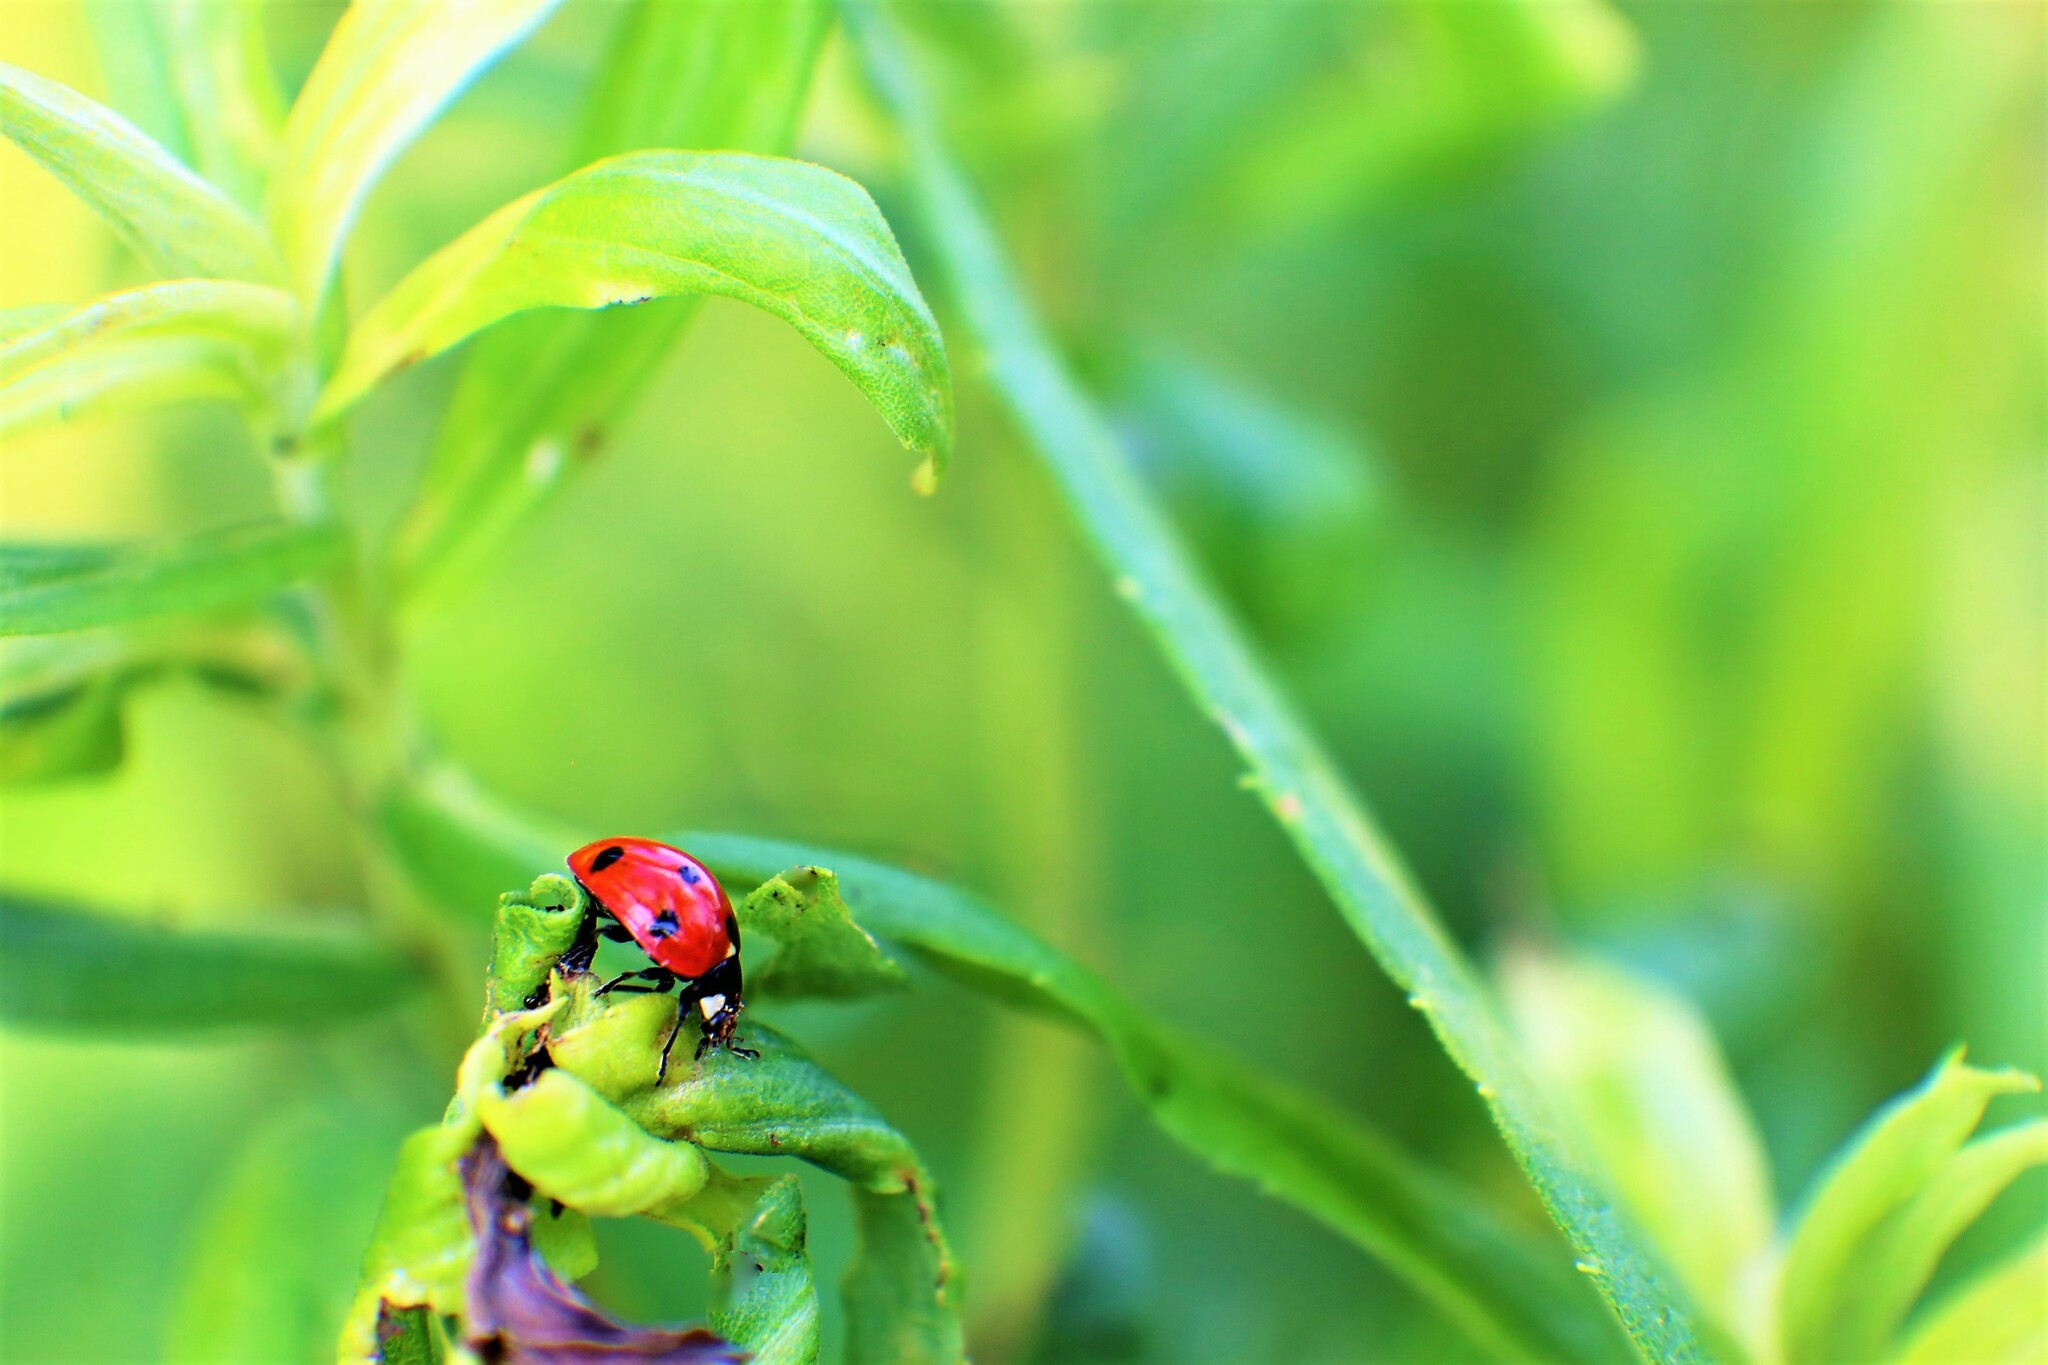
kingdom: Animalia
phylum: Arthropoda
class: Insecta
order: Coleoptera
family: Coccinellidae
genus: Coccinella
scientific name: Coccinella septempunctata
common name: Sevenspotted lady beetle
